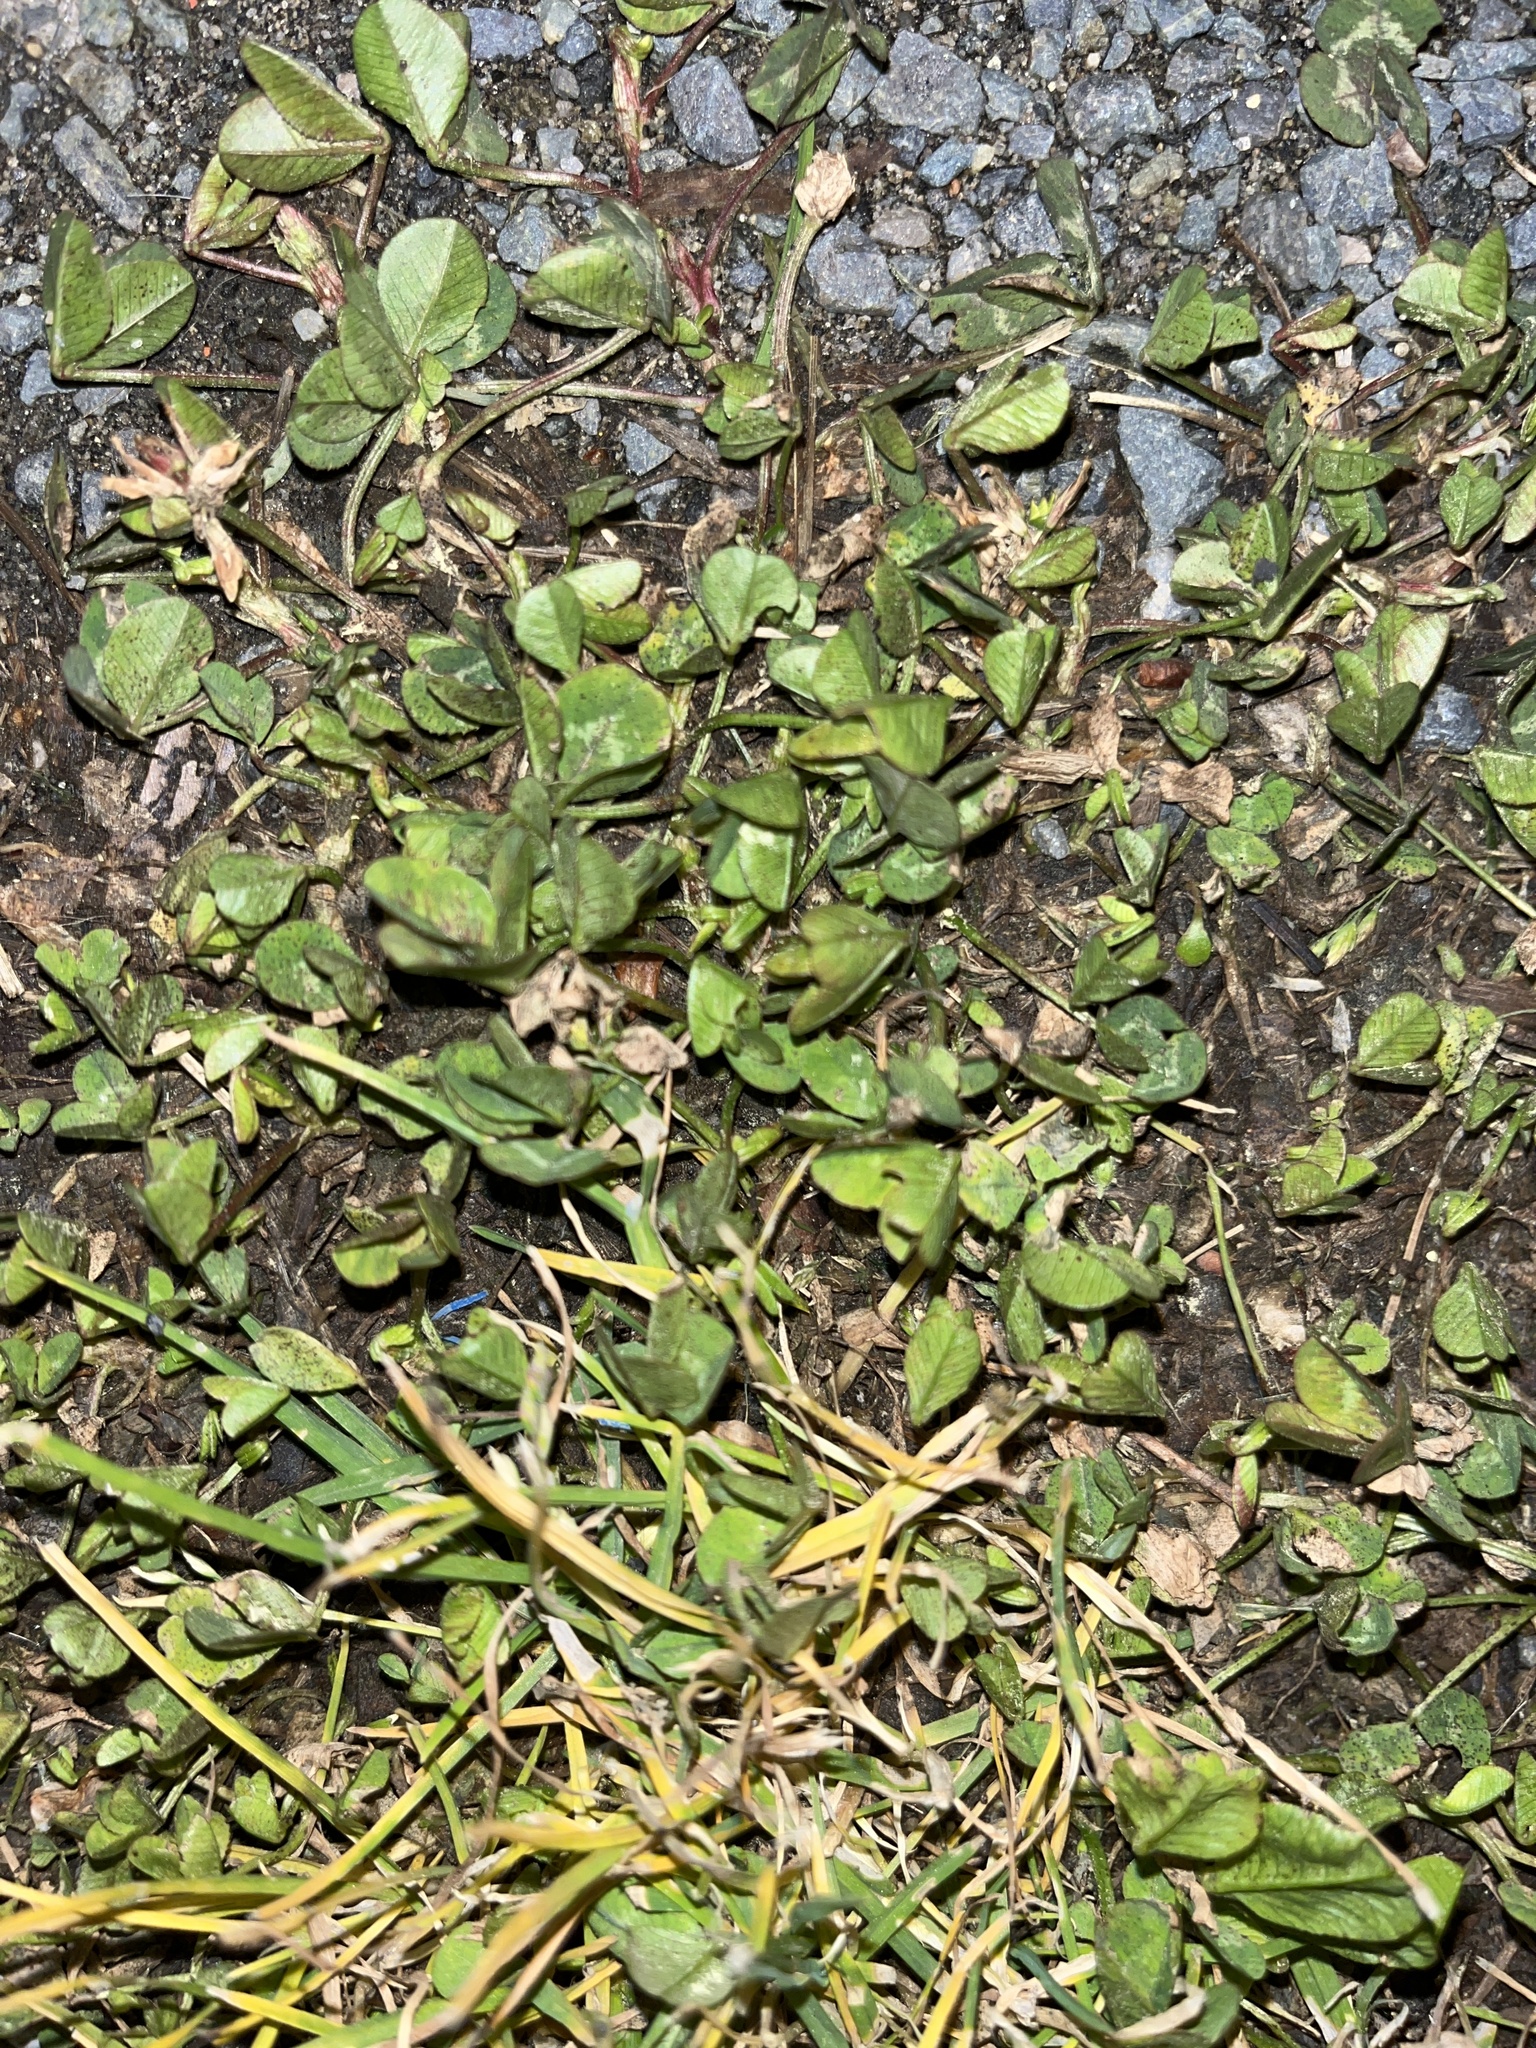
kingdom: Plantae
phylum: Tracheophyta
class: Magnoliopsida
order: Fabales
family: Fabaceae
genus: Trifolium
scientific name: Trifolium repens
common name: White clover
